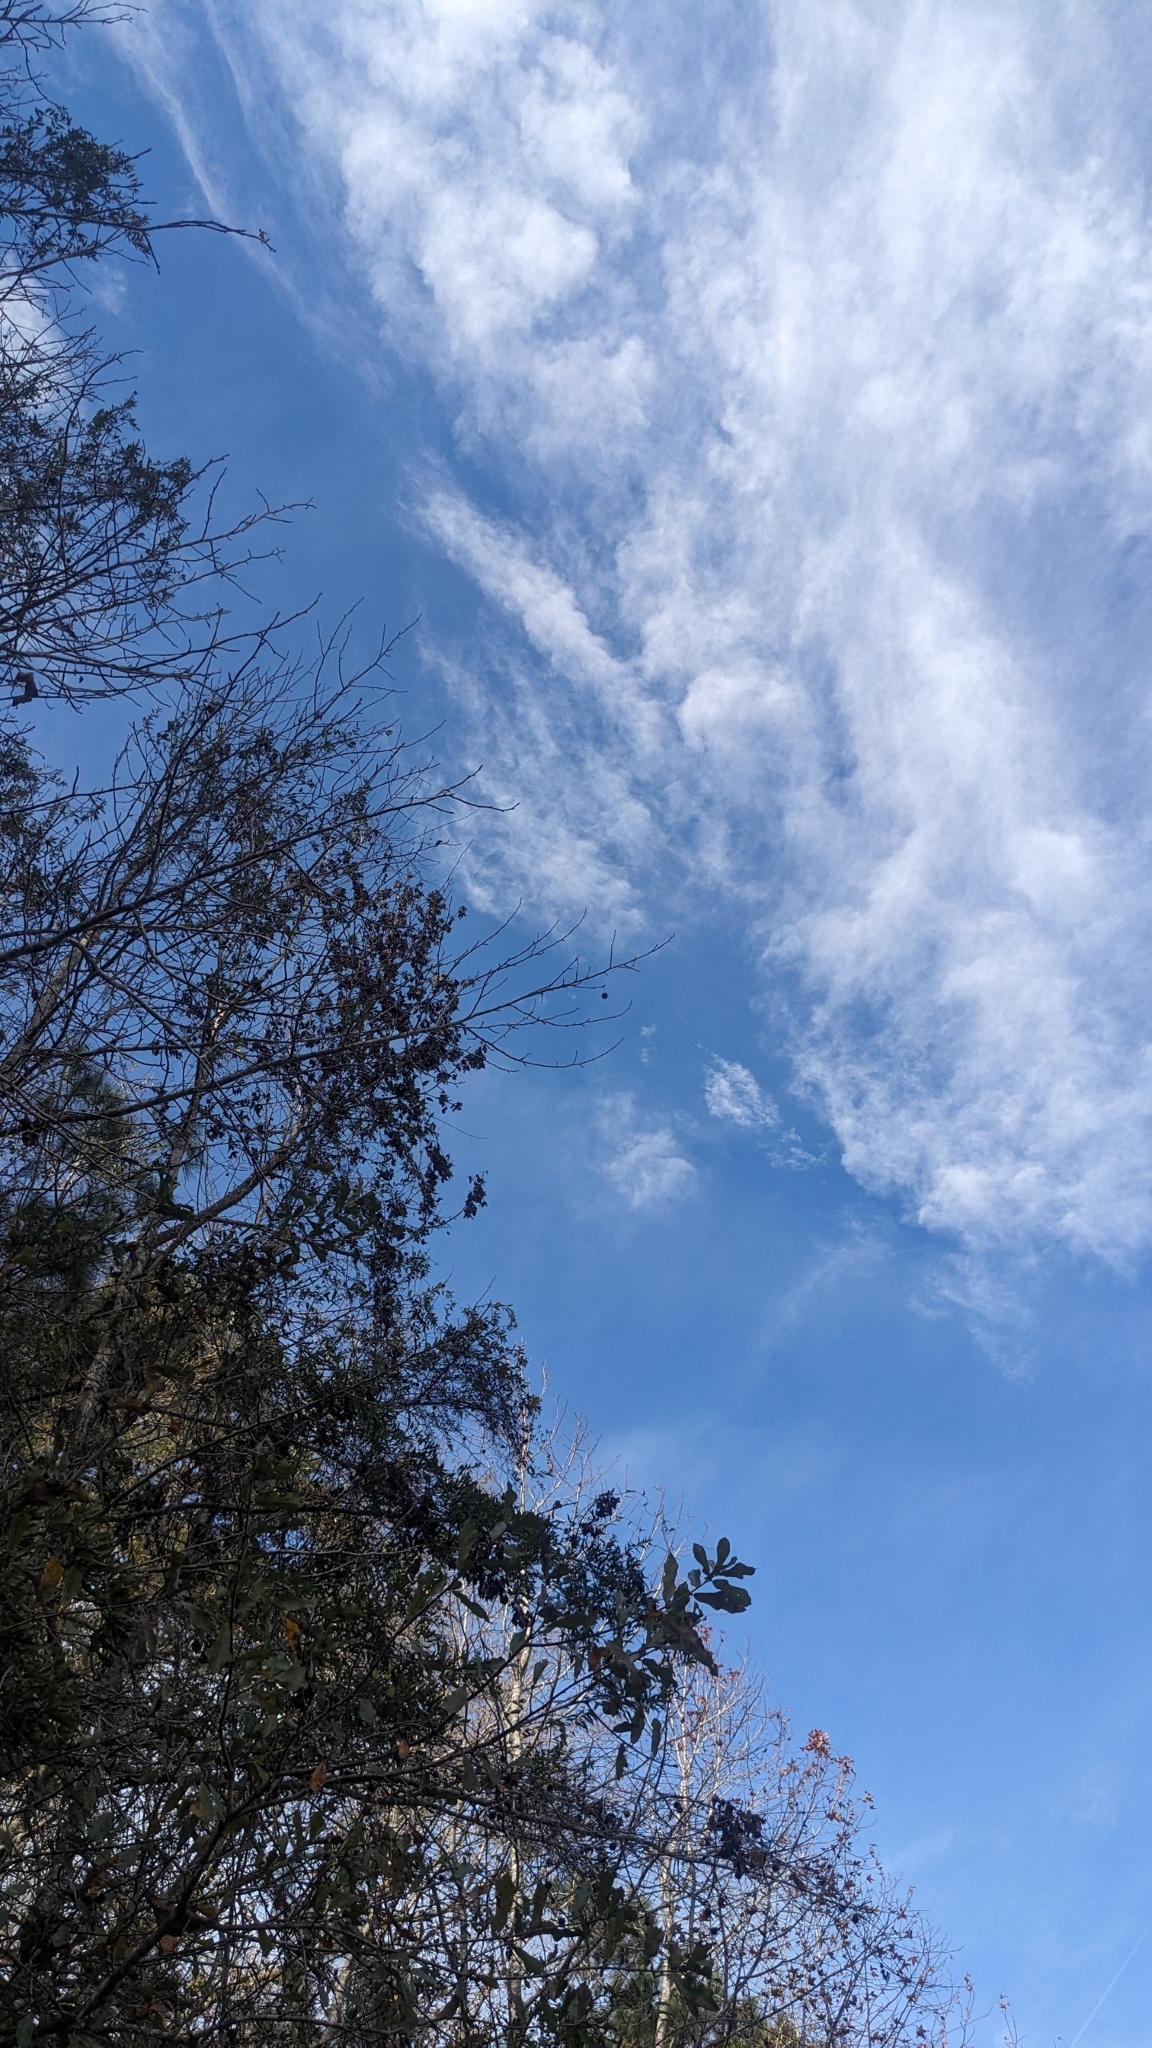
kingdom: Plantae
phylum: Tracheophyta
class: Magnoliopsida
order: Saxifragales
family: Altingiaceae
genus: Liquidambar
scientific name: Liquidambar styraciflua
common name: Sweet gum
